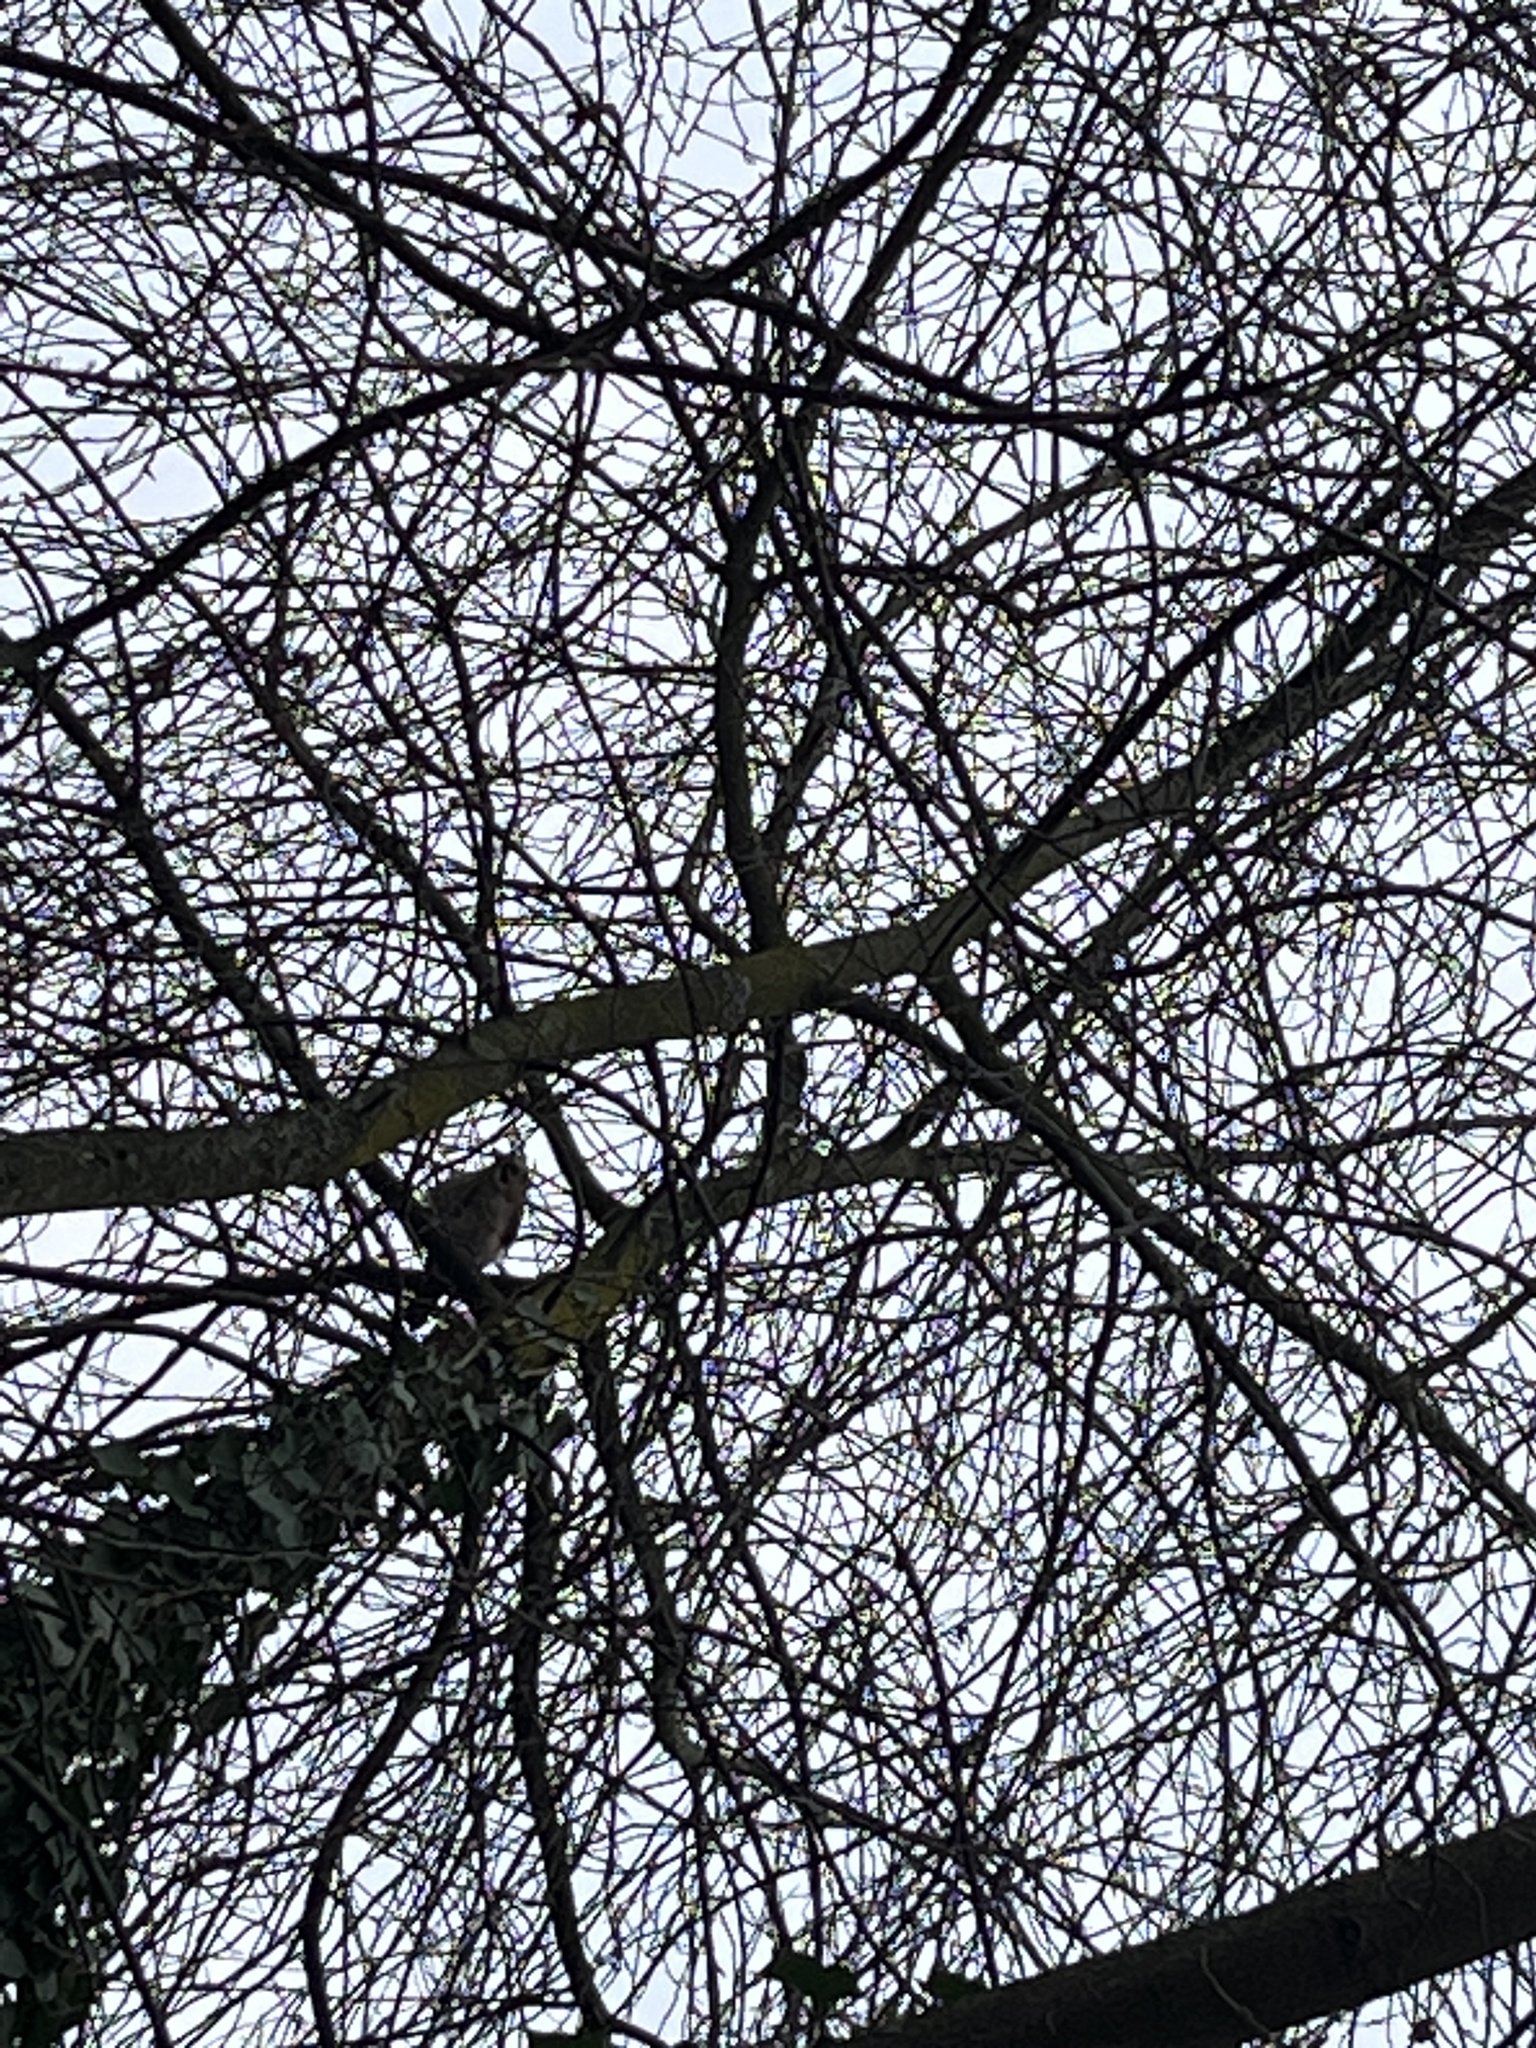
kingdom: Animalia
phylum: Chordata
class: Aves
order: Passeriformes
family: Corvidae
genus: Garrulus
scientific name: Garrulus glandarius
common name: Eurasian jay
